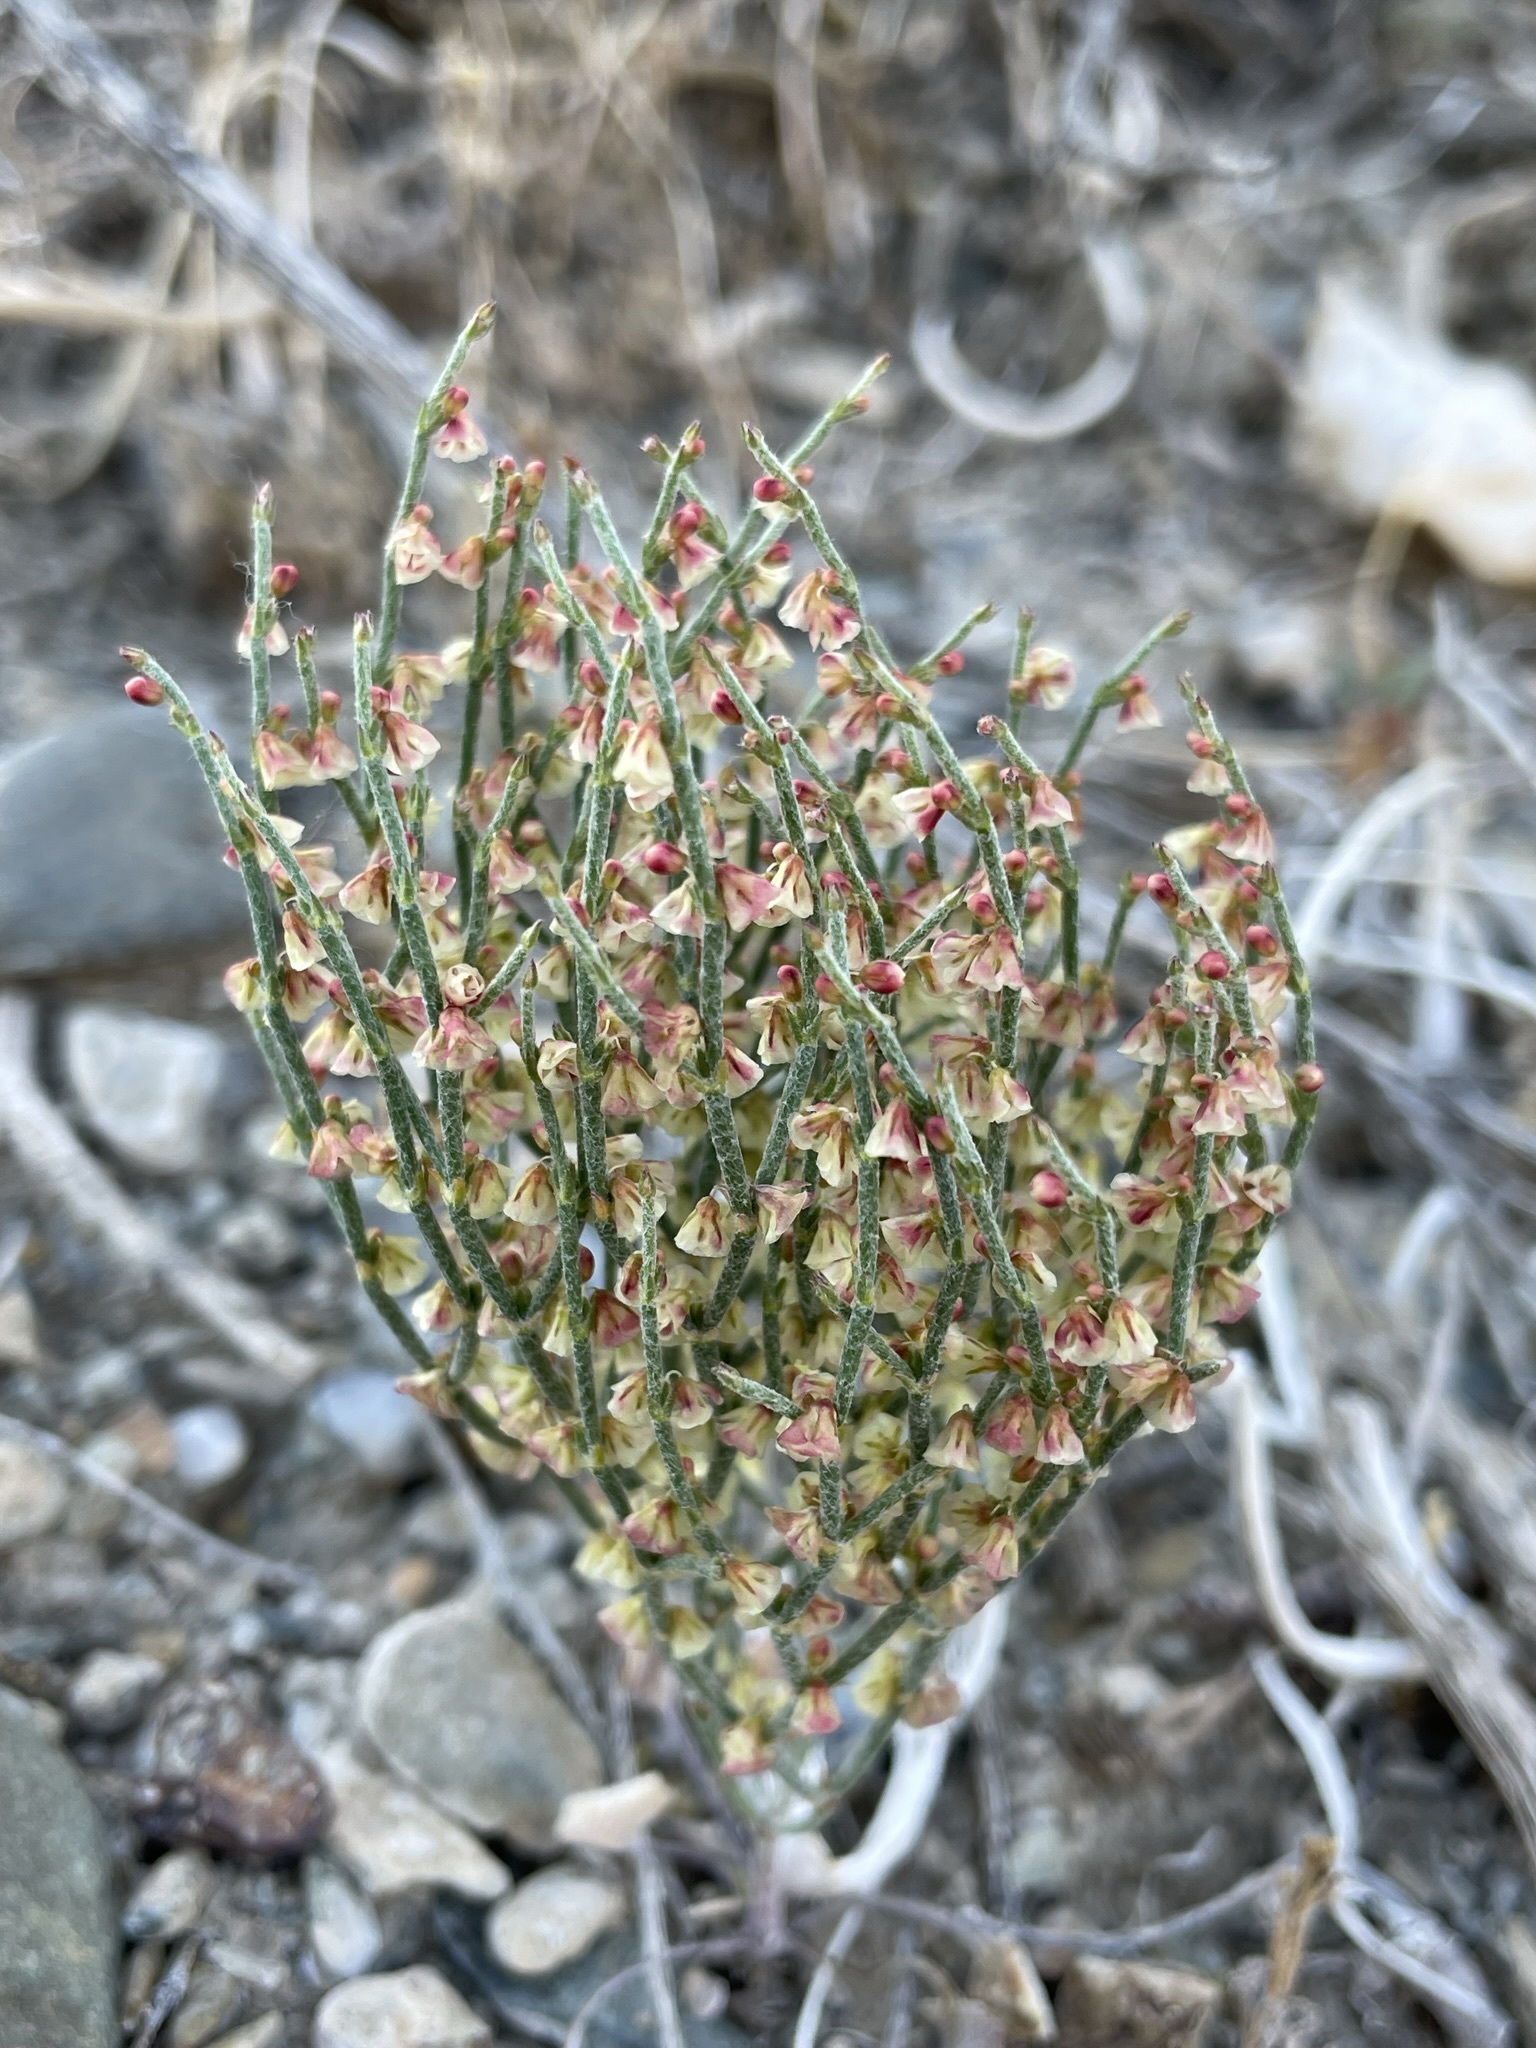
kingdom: Plantae
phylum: Tracheophyta
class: Magnoliopsida
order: Caryophyllales
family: Polygonaceae
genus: Eriogonum
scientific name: Eriogonum nidularium
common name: Bird's-nest wild buckwheat
